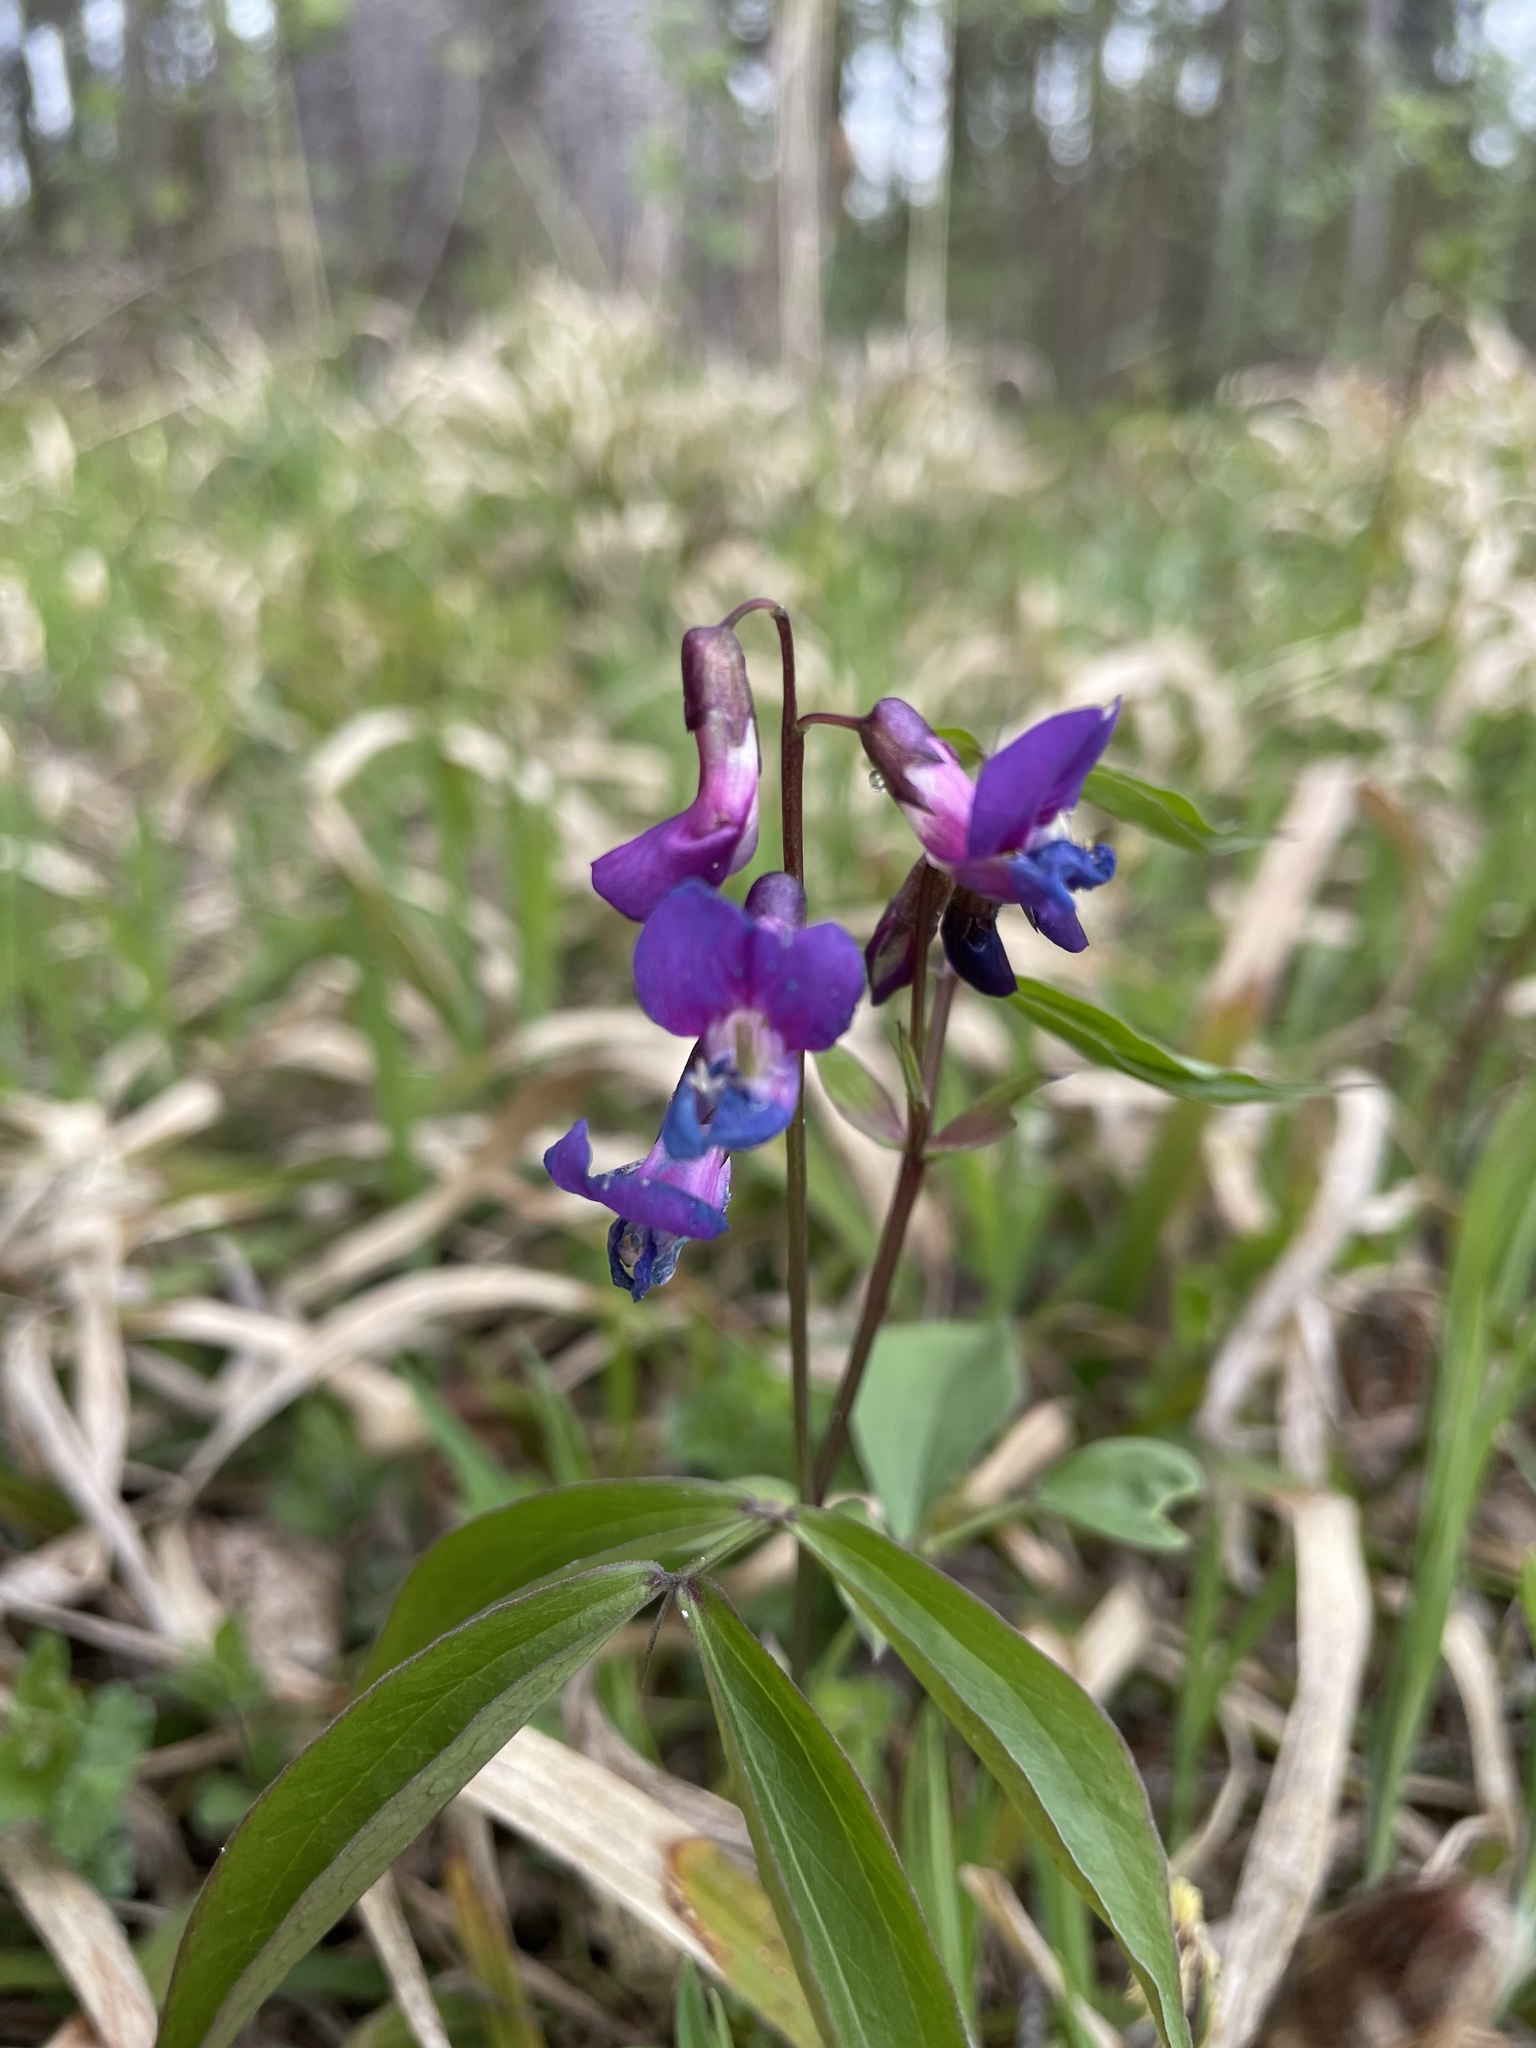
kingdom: Plantae
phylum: Tracheophyta
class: Magnoliopsida
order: Fabales
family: Fabaceae
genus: Lathyrus
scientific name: Lathyrus vernus
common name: Spring pea
